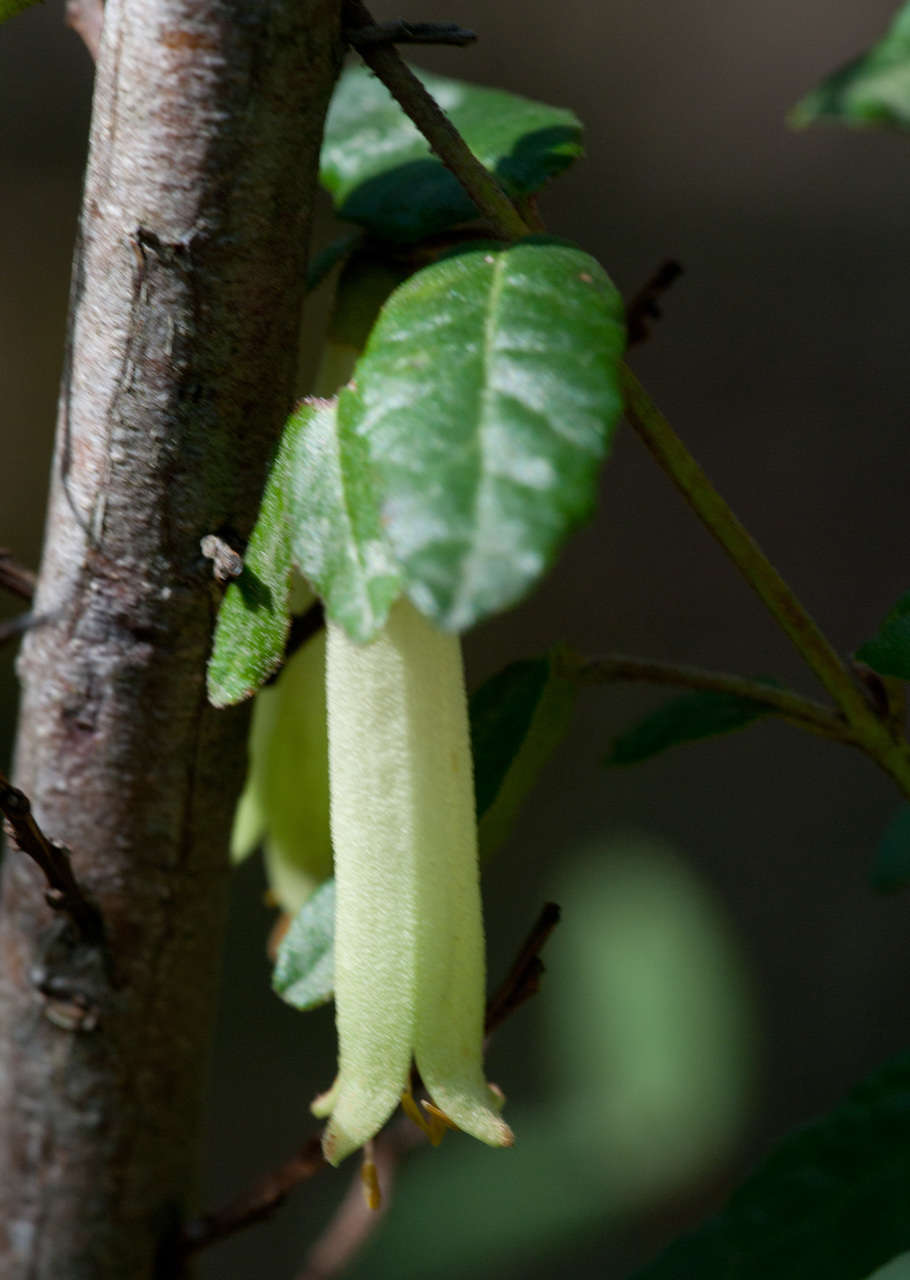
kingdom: Plantae
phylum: Tracheophyta
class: Magnoliopsida
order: Sapindales
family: Rutaceae
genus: Correa
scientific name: Correa reflexa
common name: Common correa
